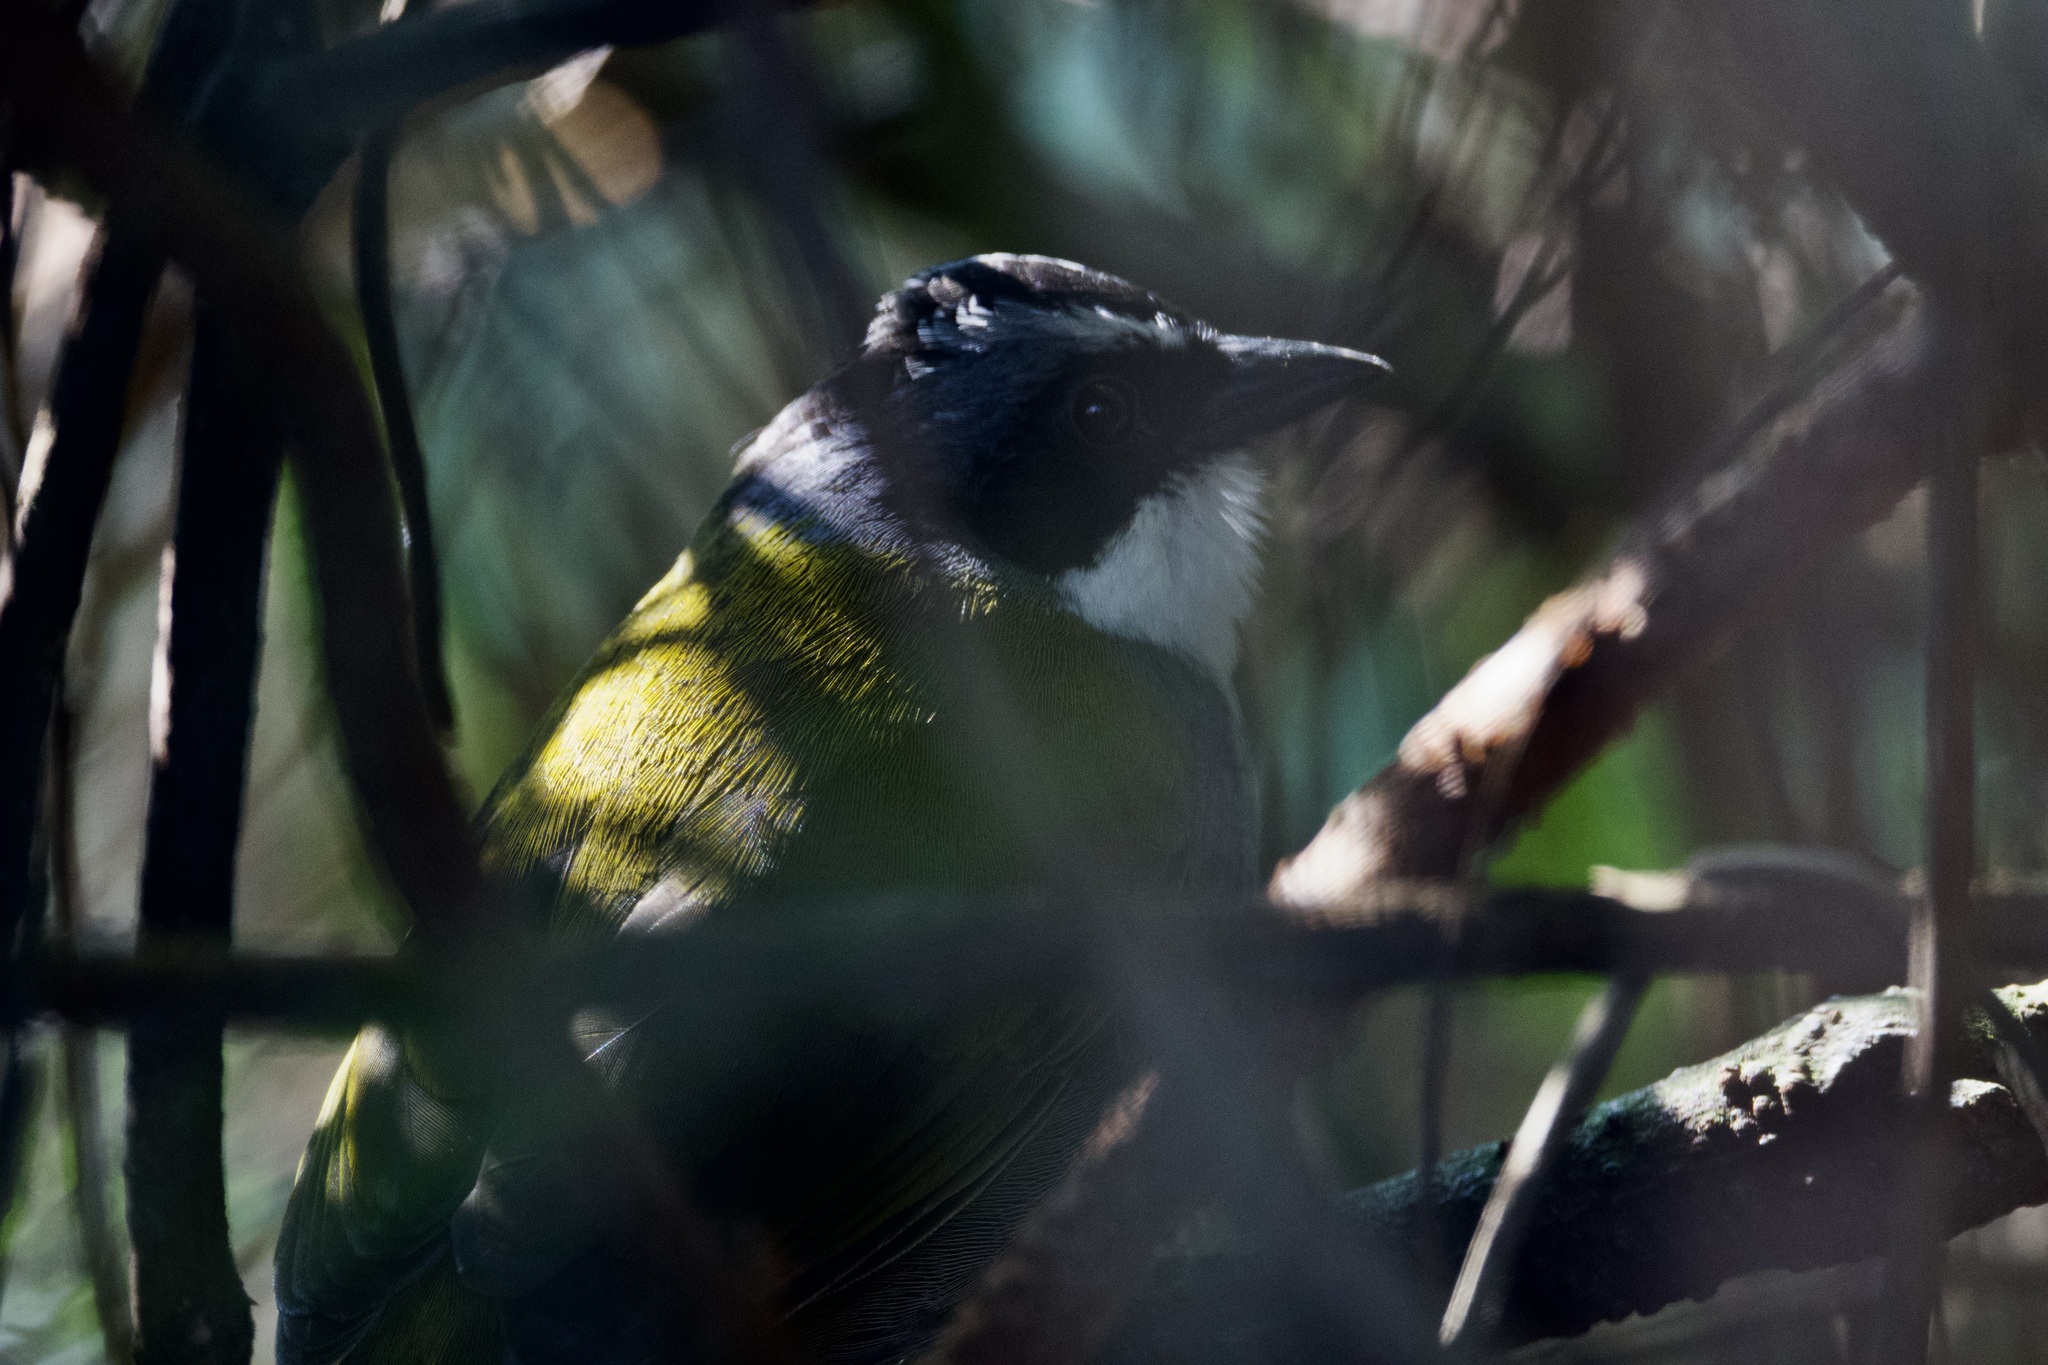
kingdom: Animalia
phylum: Chordata
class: Aves
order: Passeriformes
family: Passerellidae
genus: Arremon
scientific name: Arremon assimilis
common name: Grey-browed brushfinch
